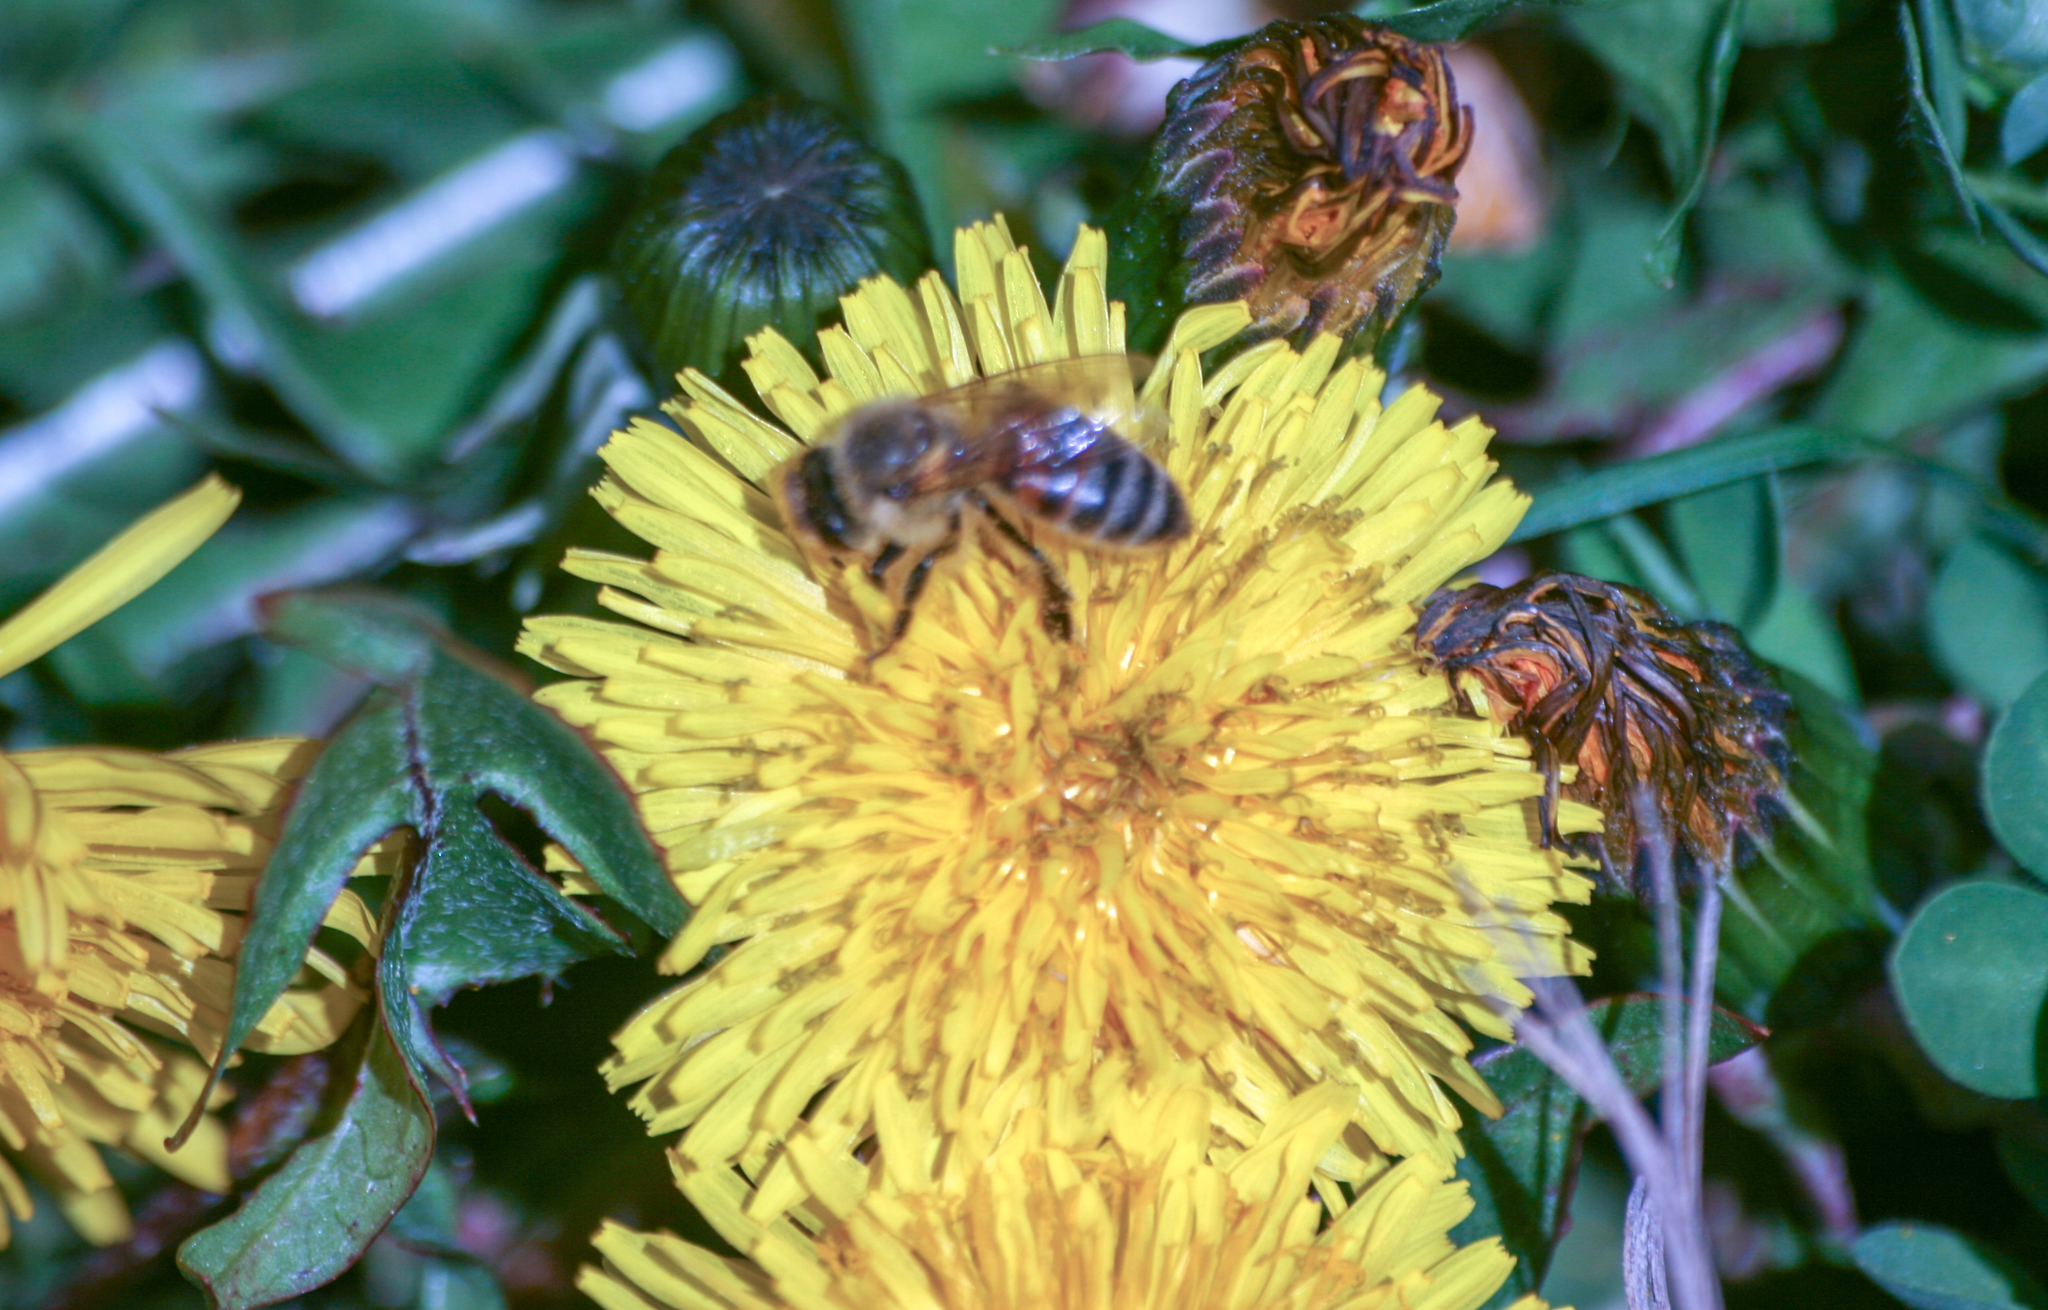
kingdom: Animalia
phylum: Arthropoda
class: Insecta
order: Hymenoptera
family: Apidae
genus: Apis
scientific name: Apis mellifera
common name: Honey bee
